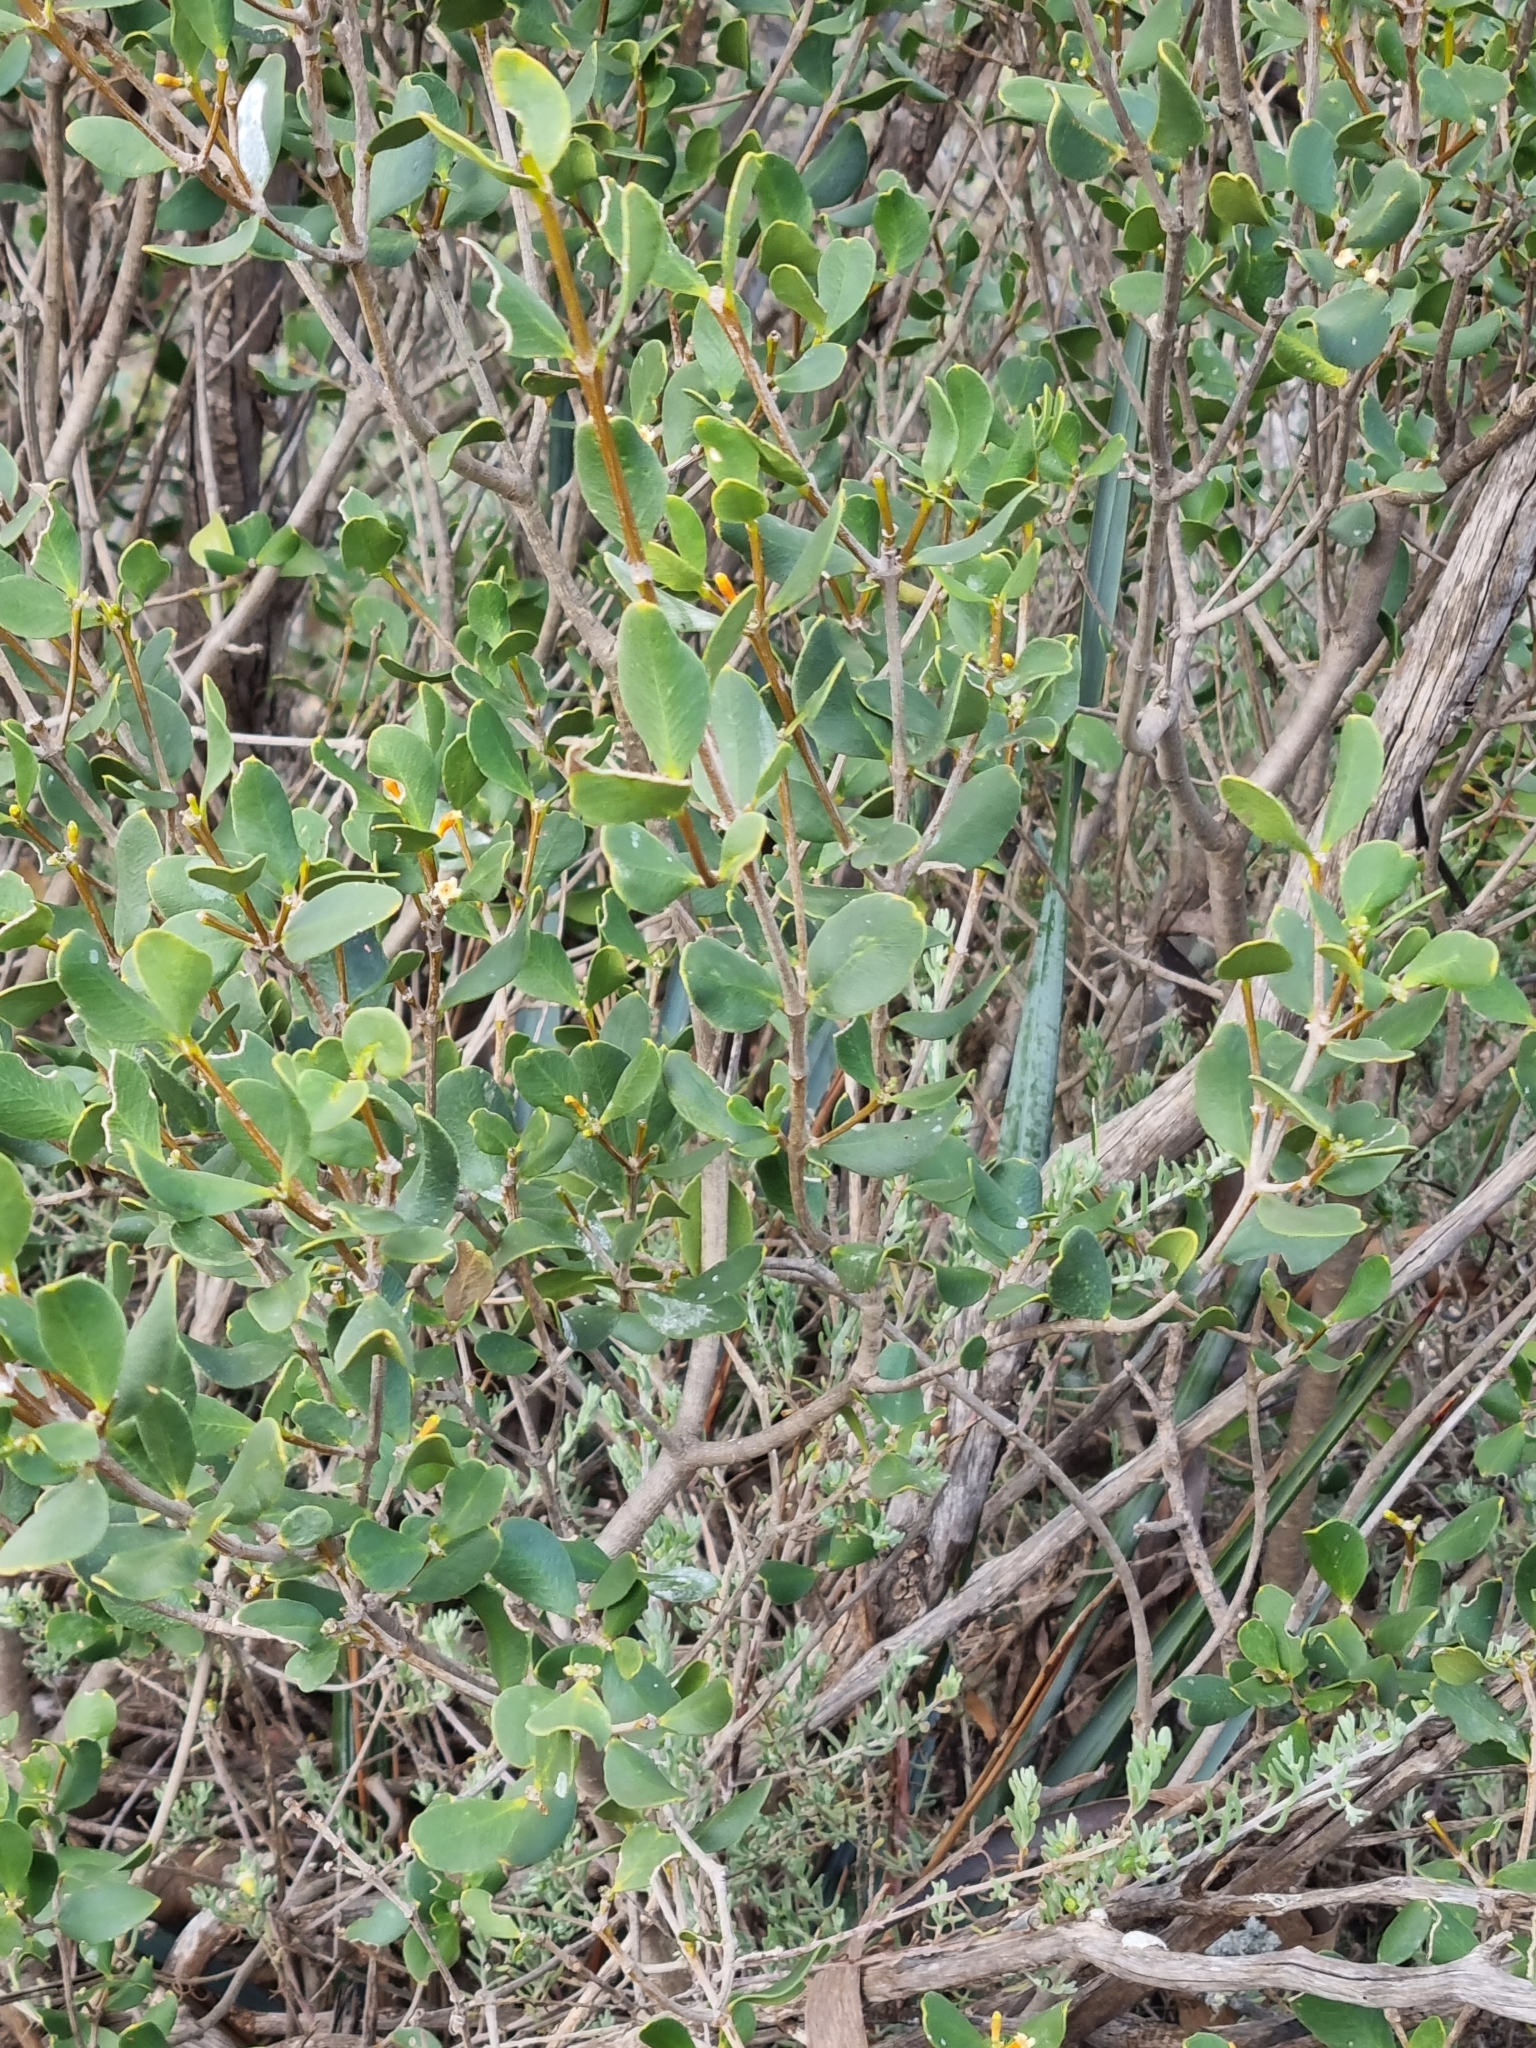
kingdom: Plantae
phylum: Tracheophyta
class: Magnoliopsida
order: Gentianales
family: Apocynaceae
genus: Alyxia
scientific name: Alyxia buxifolia
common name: Dysentery-bush
